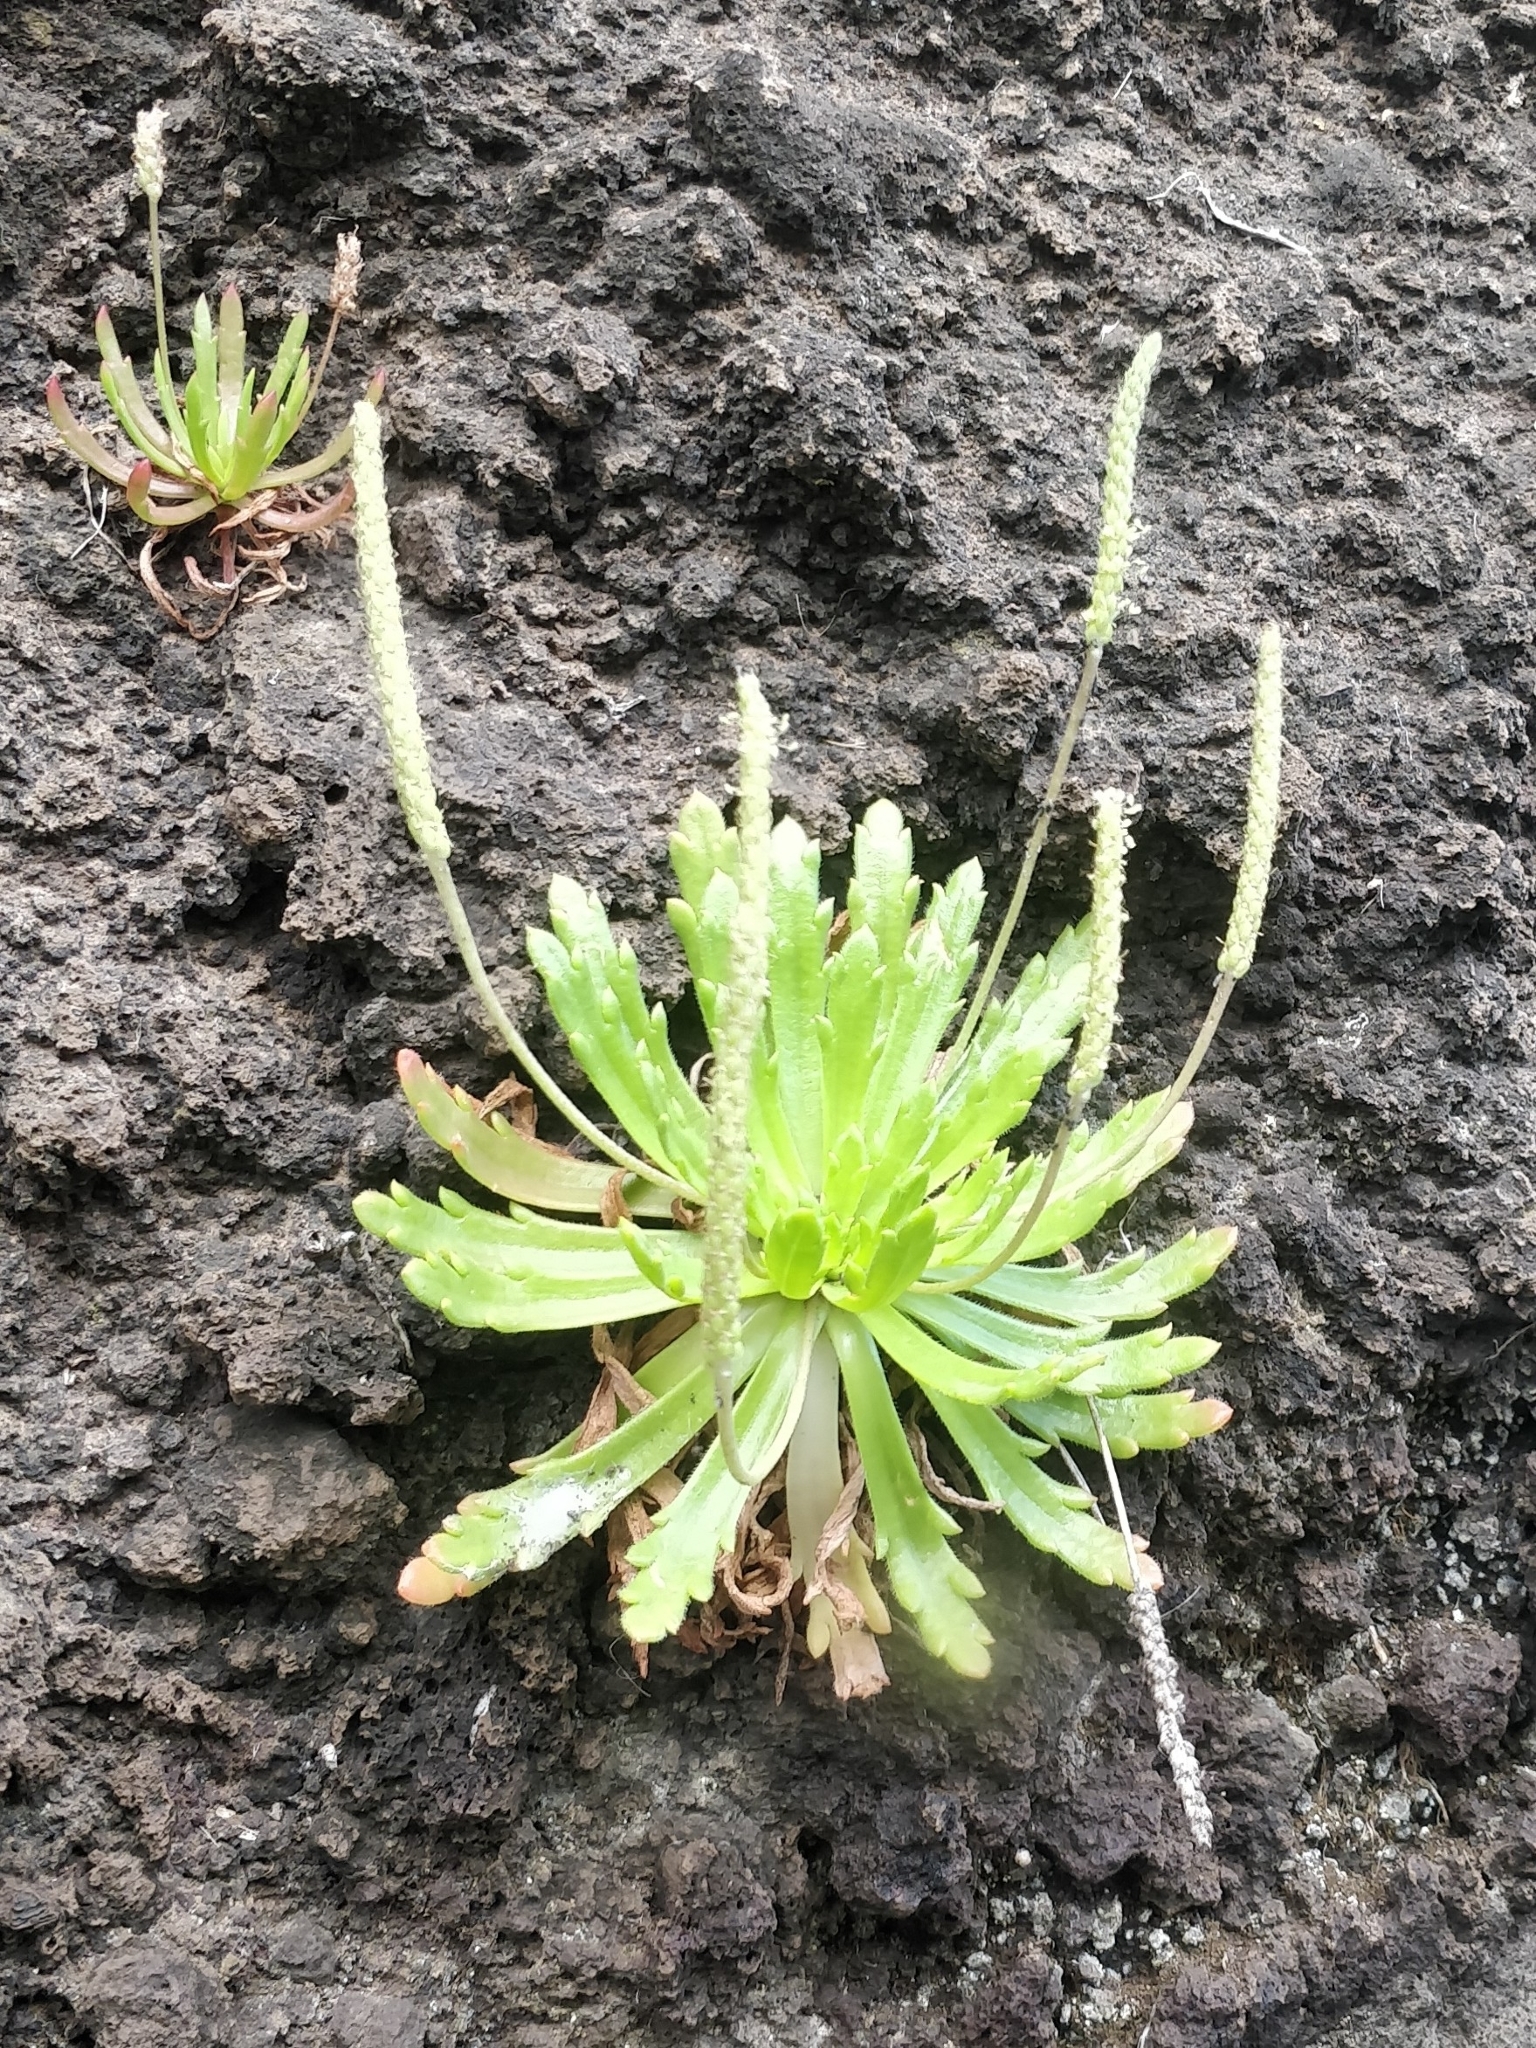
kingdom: Plantae
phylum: Tracheophyta
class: Magnoliopsida
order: Lamiales
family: Plantaginaceae
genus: Plantago
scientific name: Plantago coronopus
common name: Buck's-horn plantain
